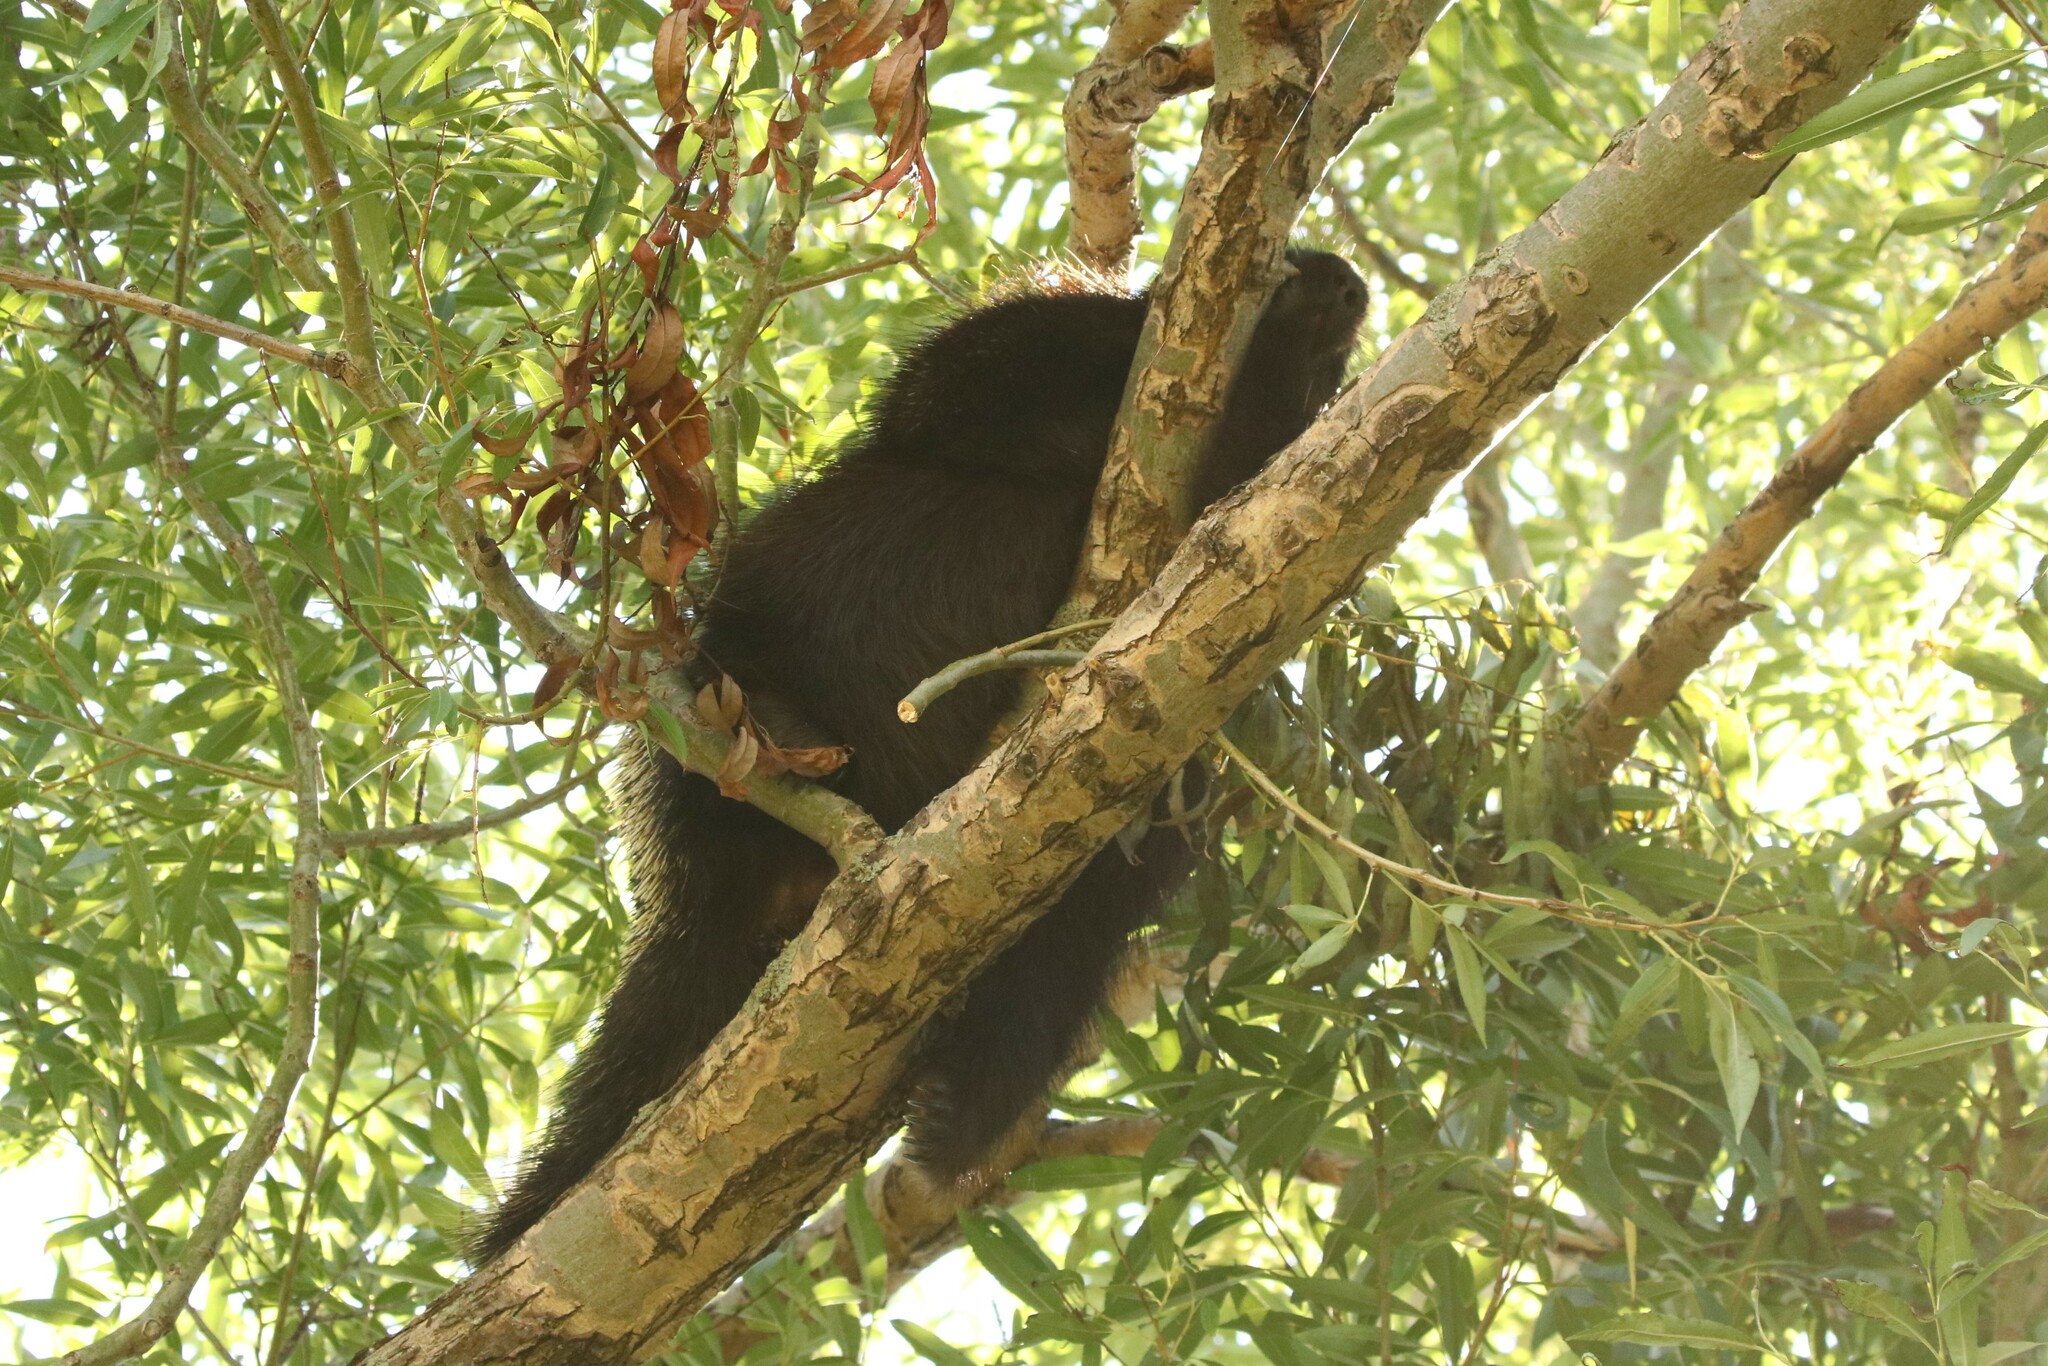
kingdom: Animalia
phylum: Chordata
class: Mammalia
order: Rodentia
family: Erethizontidae
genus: Erethizon
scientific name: Erethizon dorsatus
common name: North american porcupine
